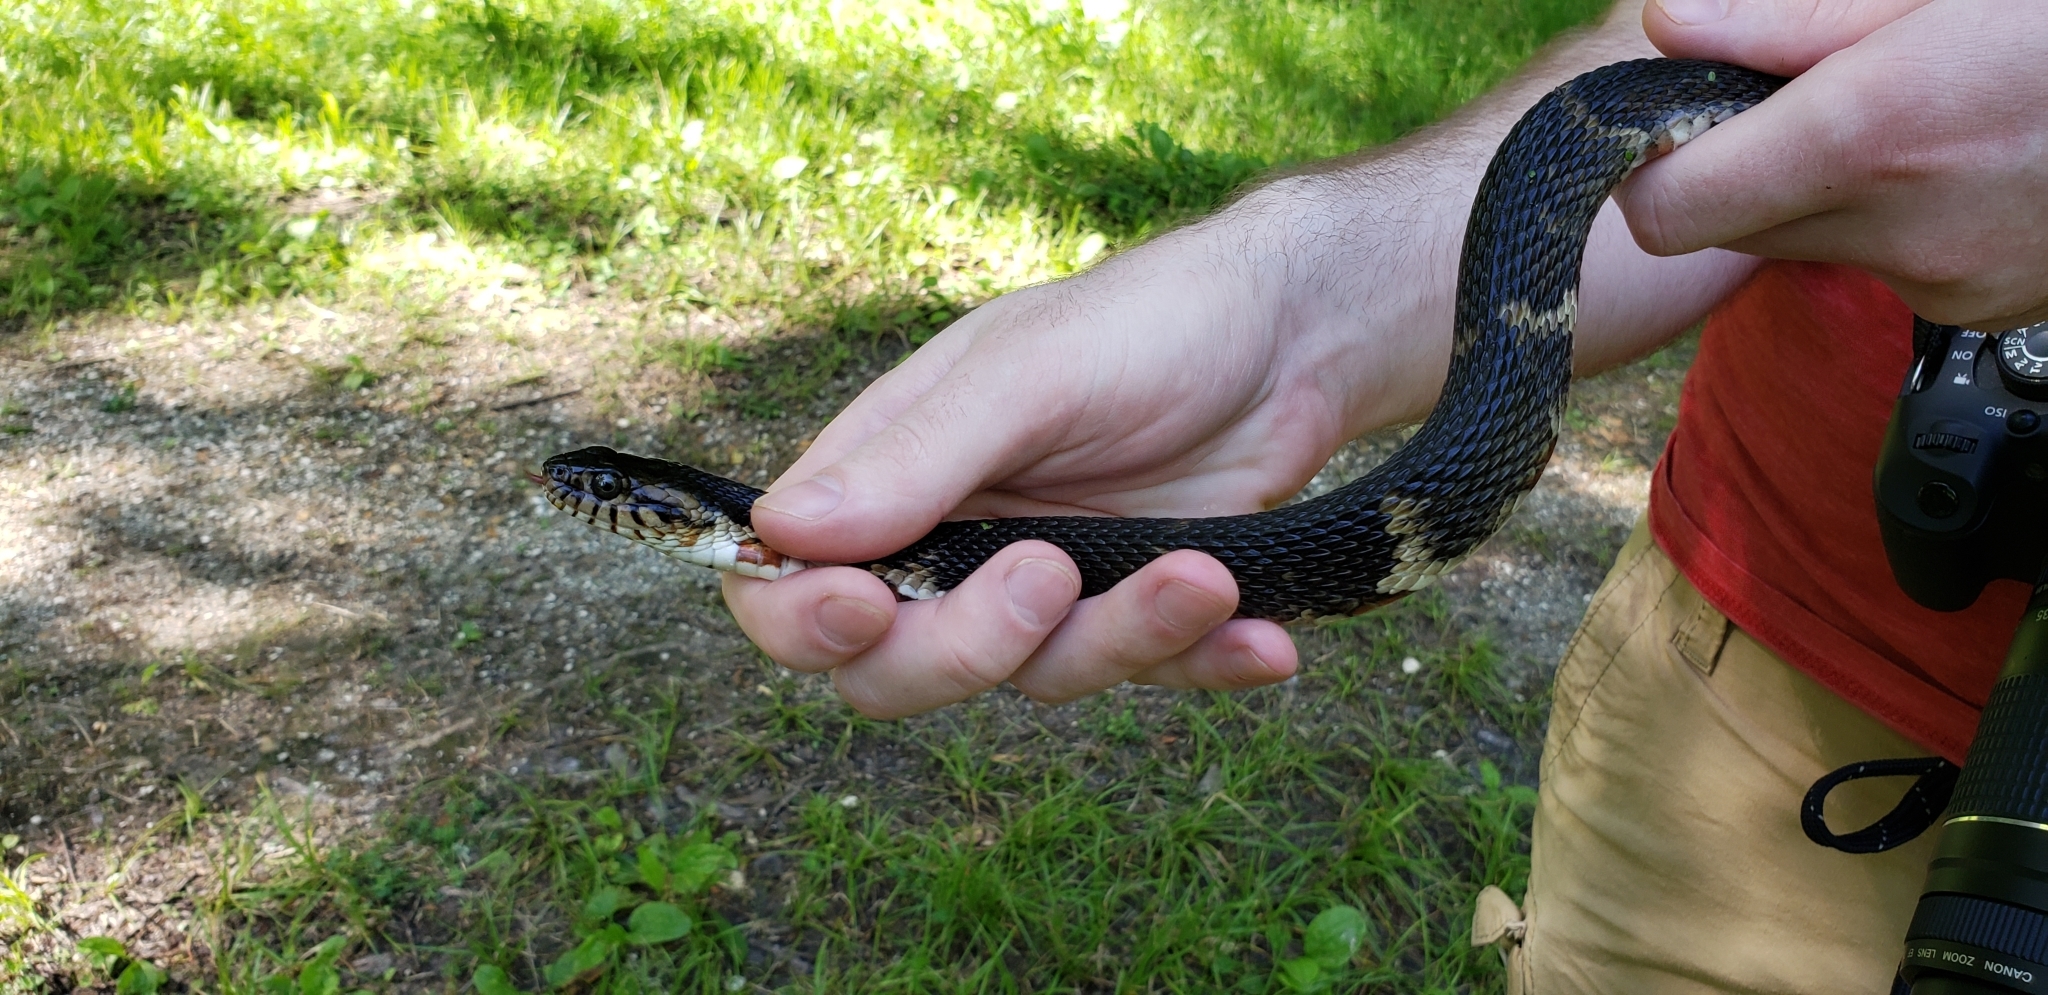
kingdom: Animalia
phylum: Chordata
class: Squamata
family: Colubridae
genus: Nerodia
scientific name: Nerodia fasciata
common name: Southern water snake
